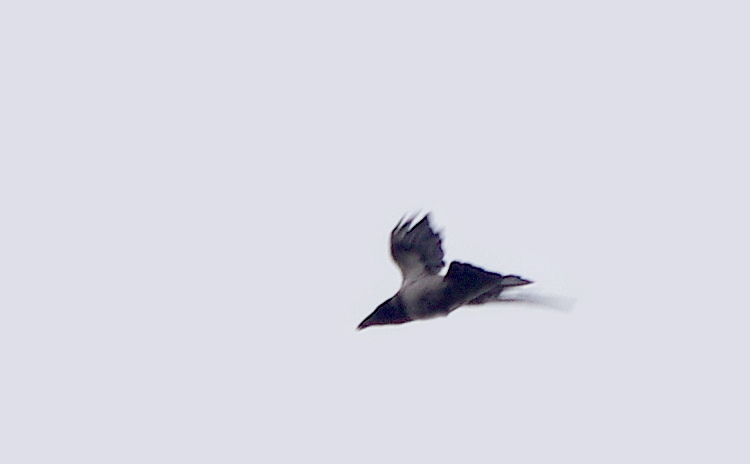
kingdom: Animalia
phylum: Chordata
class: Aves
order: Passeriformes
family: Corvidae
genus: Corvus
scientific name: Corvus cornix
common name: Hooded crow
